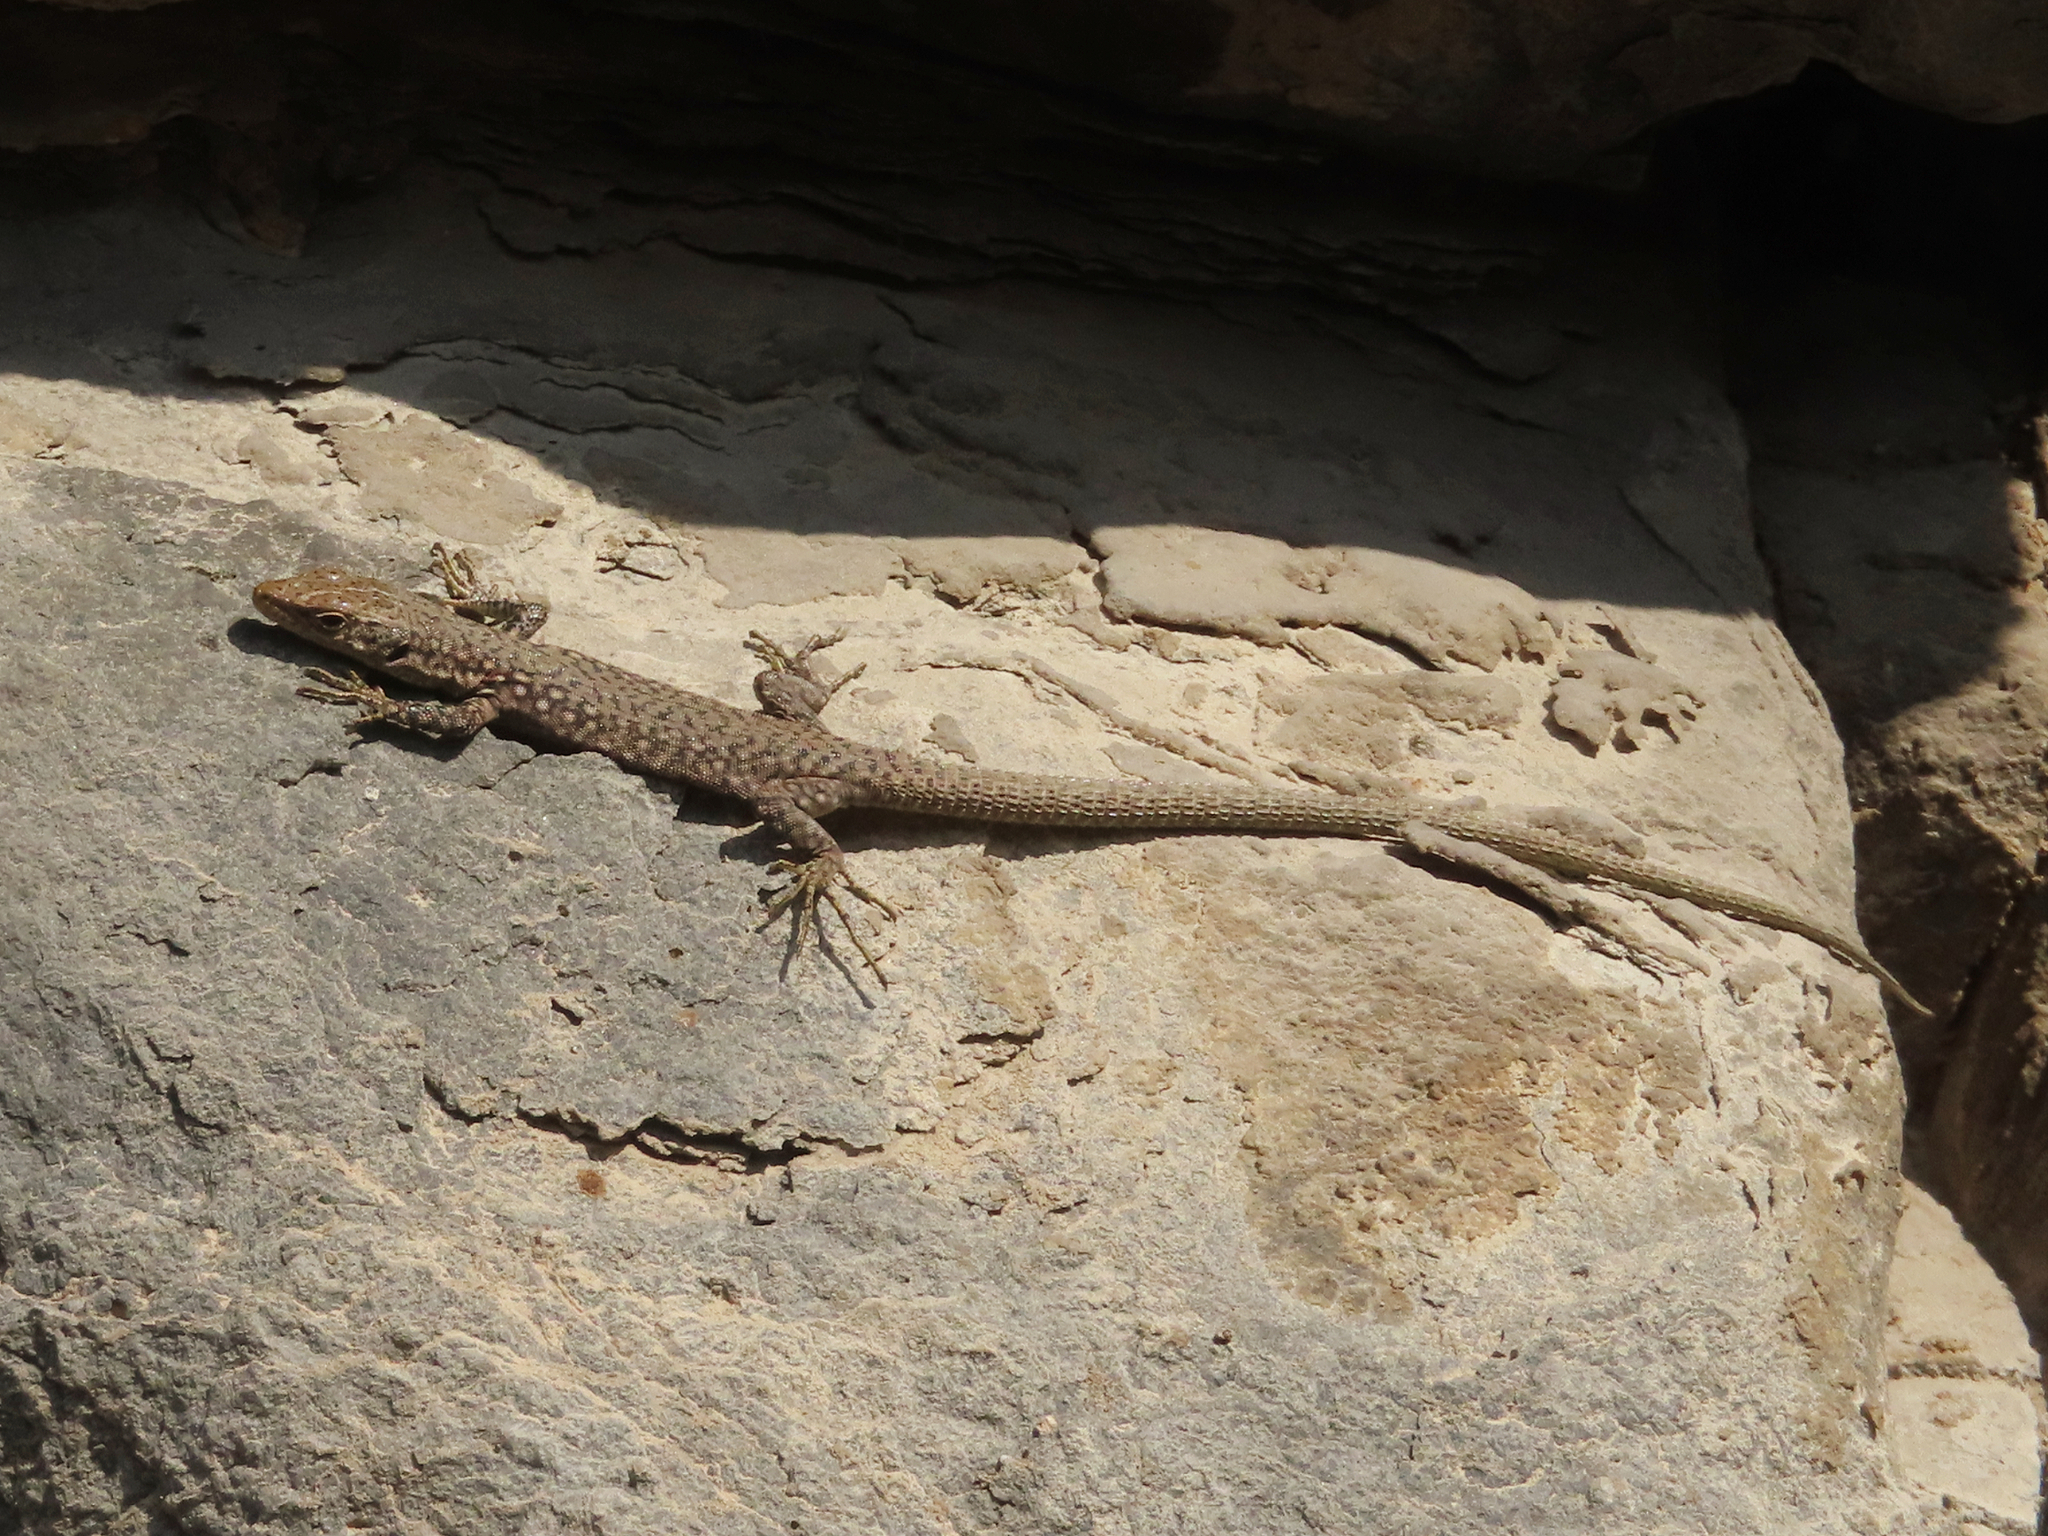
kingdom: Animalia
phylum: Chordata
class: Squamata
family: Lacertidae
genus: Darevskia
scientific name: Darevskia
